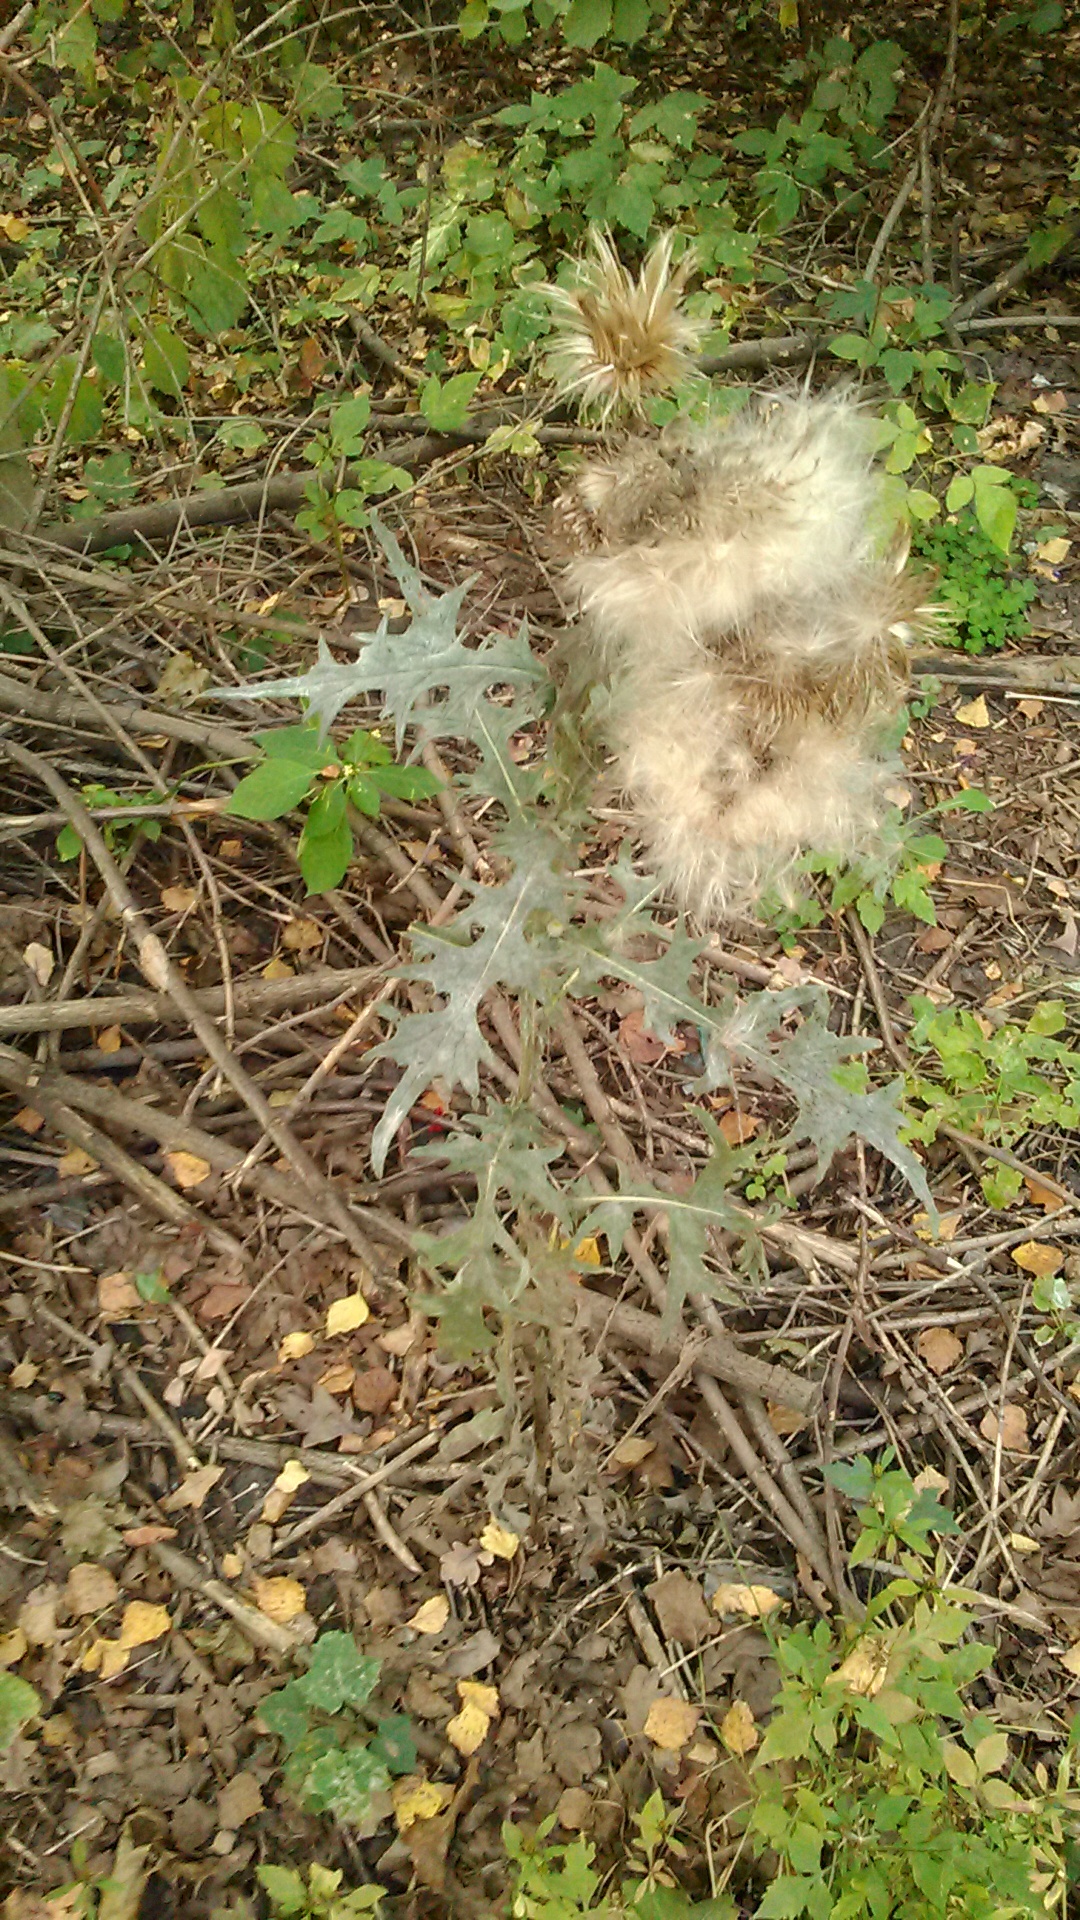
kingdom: Plantae
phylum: Tracheophyta
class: Magnoliopsida
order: Asterales
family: Asteraceae
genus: Cirsium
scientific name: Cirsium vulgare
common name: Bull thistle
